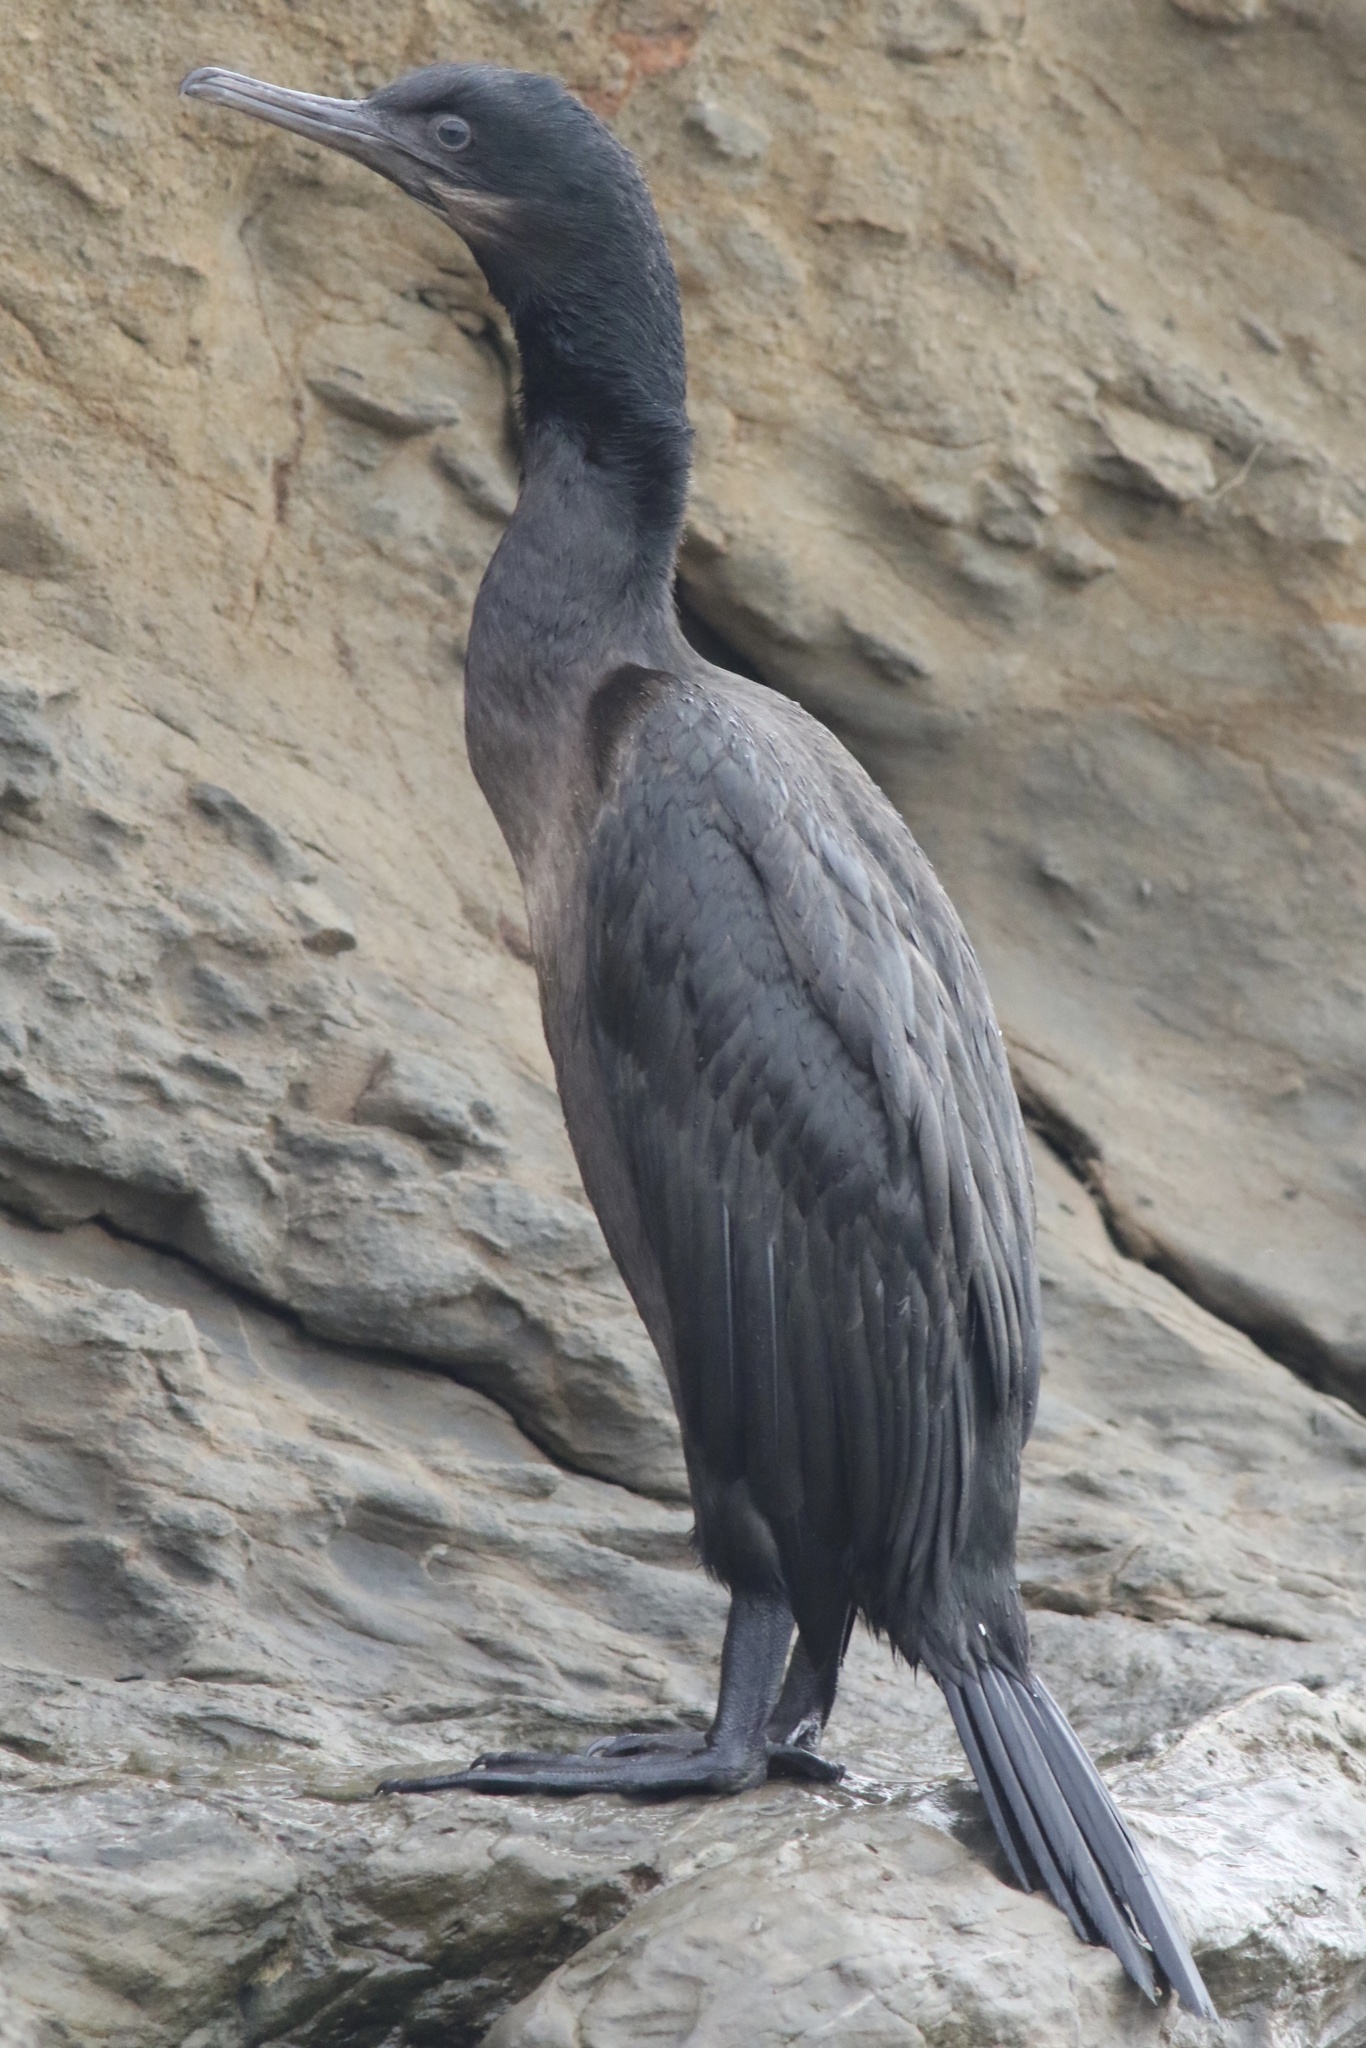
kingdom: Animalia
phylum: Chordata
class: Aves
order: Suliformes
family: Phalacrocoracidae
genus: Urile
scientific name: Urile penicillatus
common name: Brandt's cormorant
